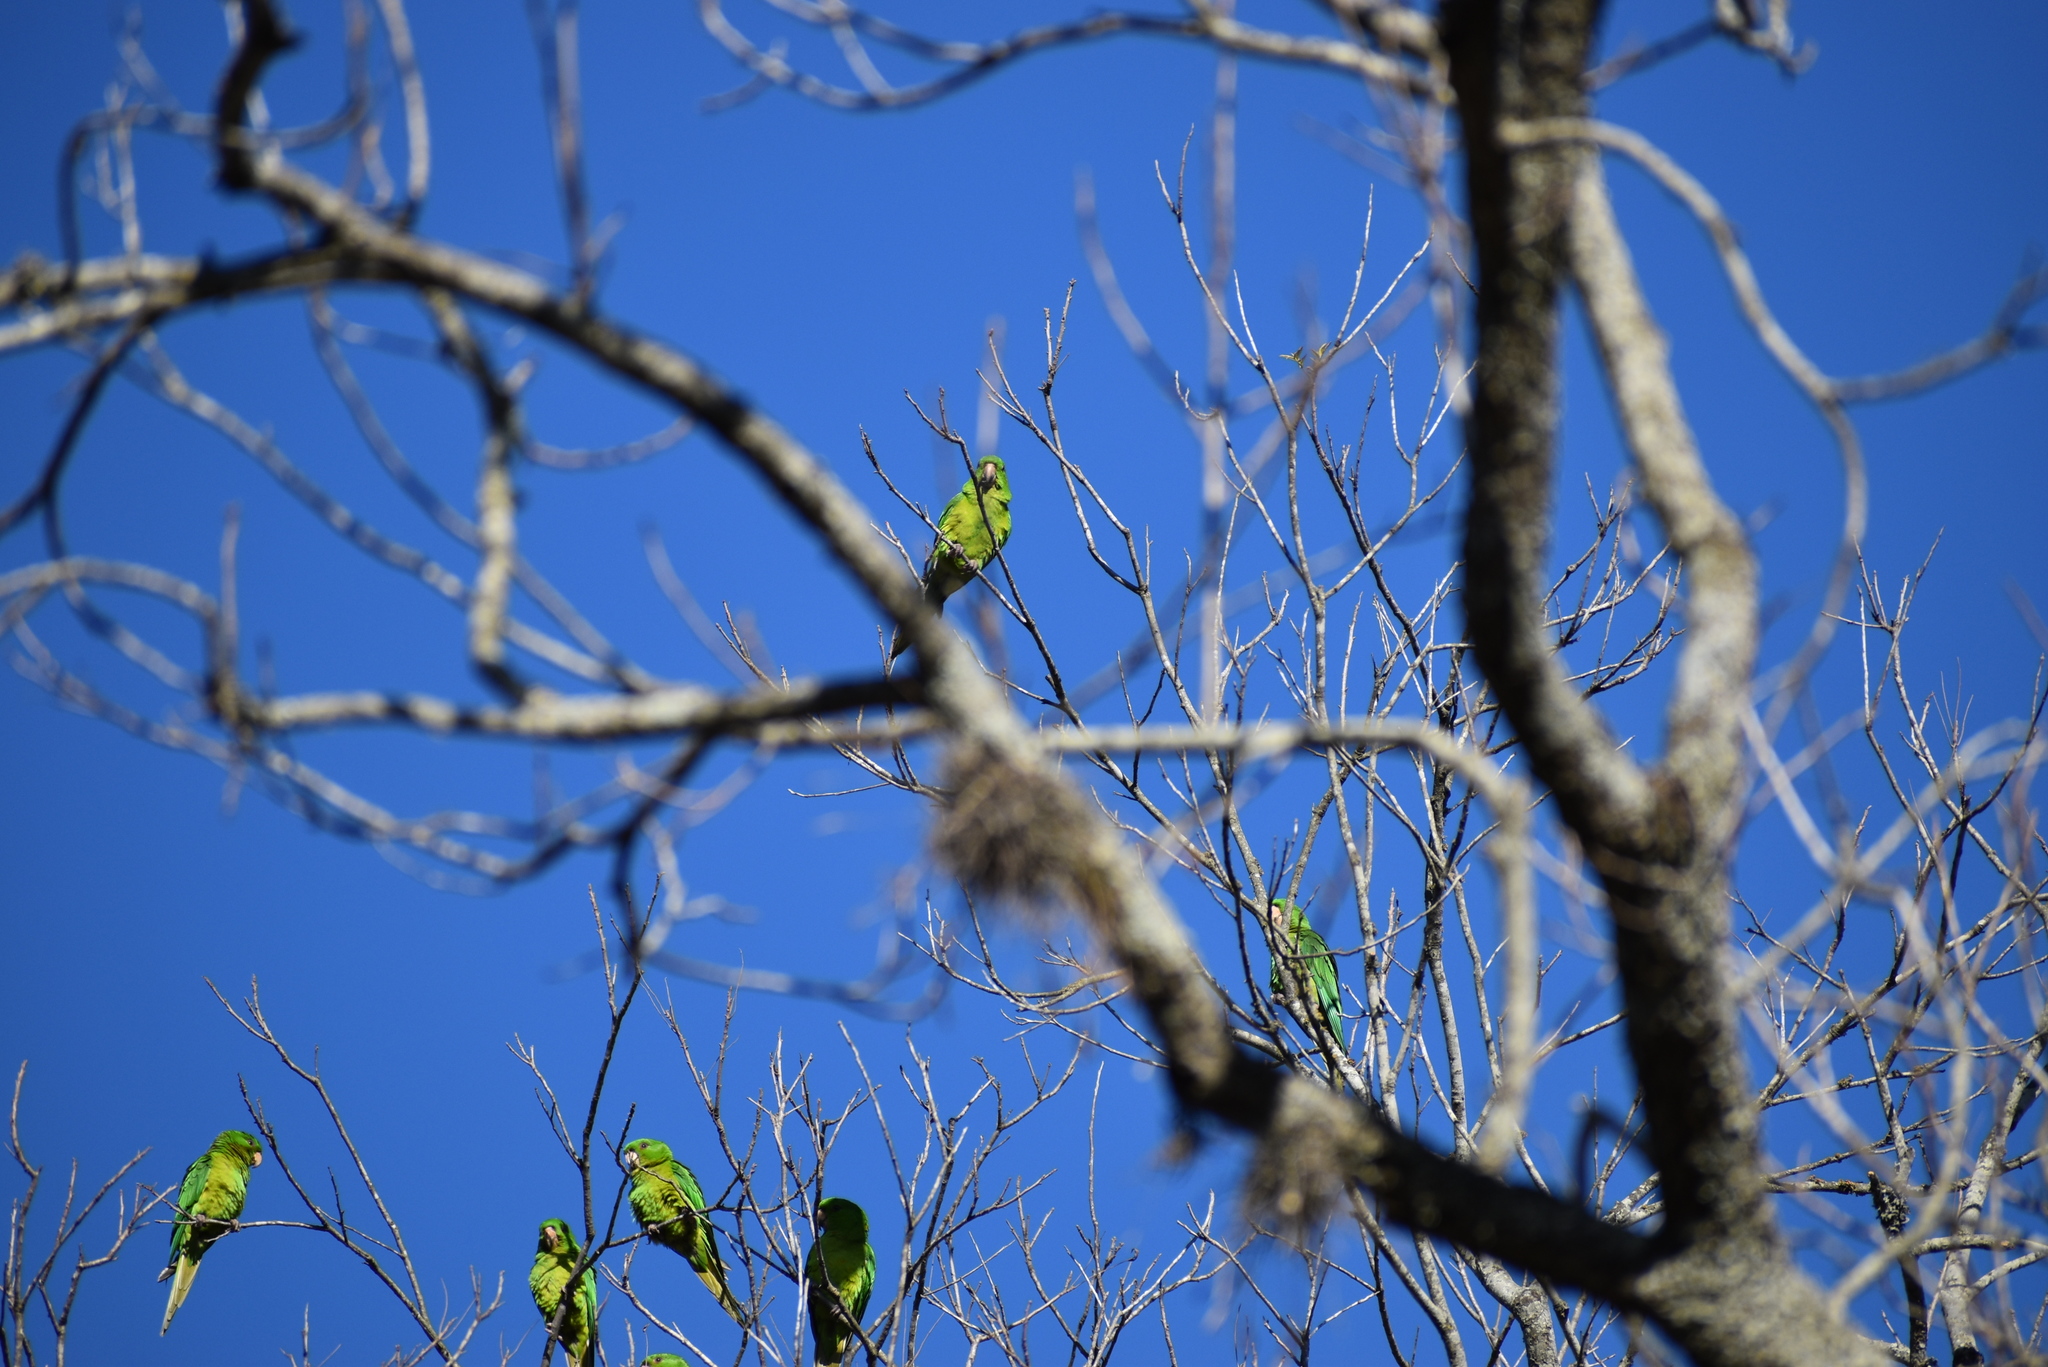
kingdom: Animalia
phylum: Chordata
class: Aves
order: Psittaciformes
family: Psittacidae
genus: Aratinga
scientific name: Aratinga holochlora
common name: Green parakeet
